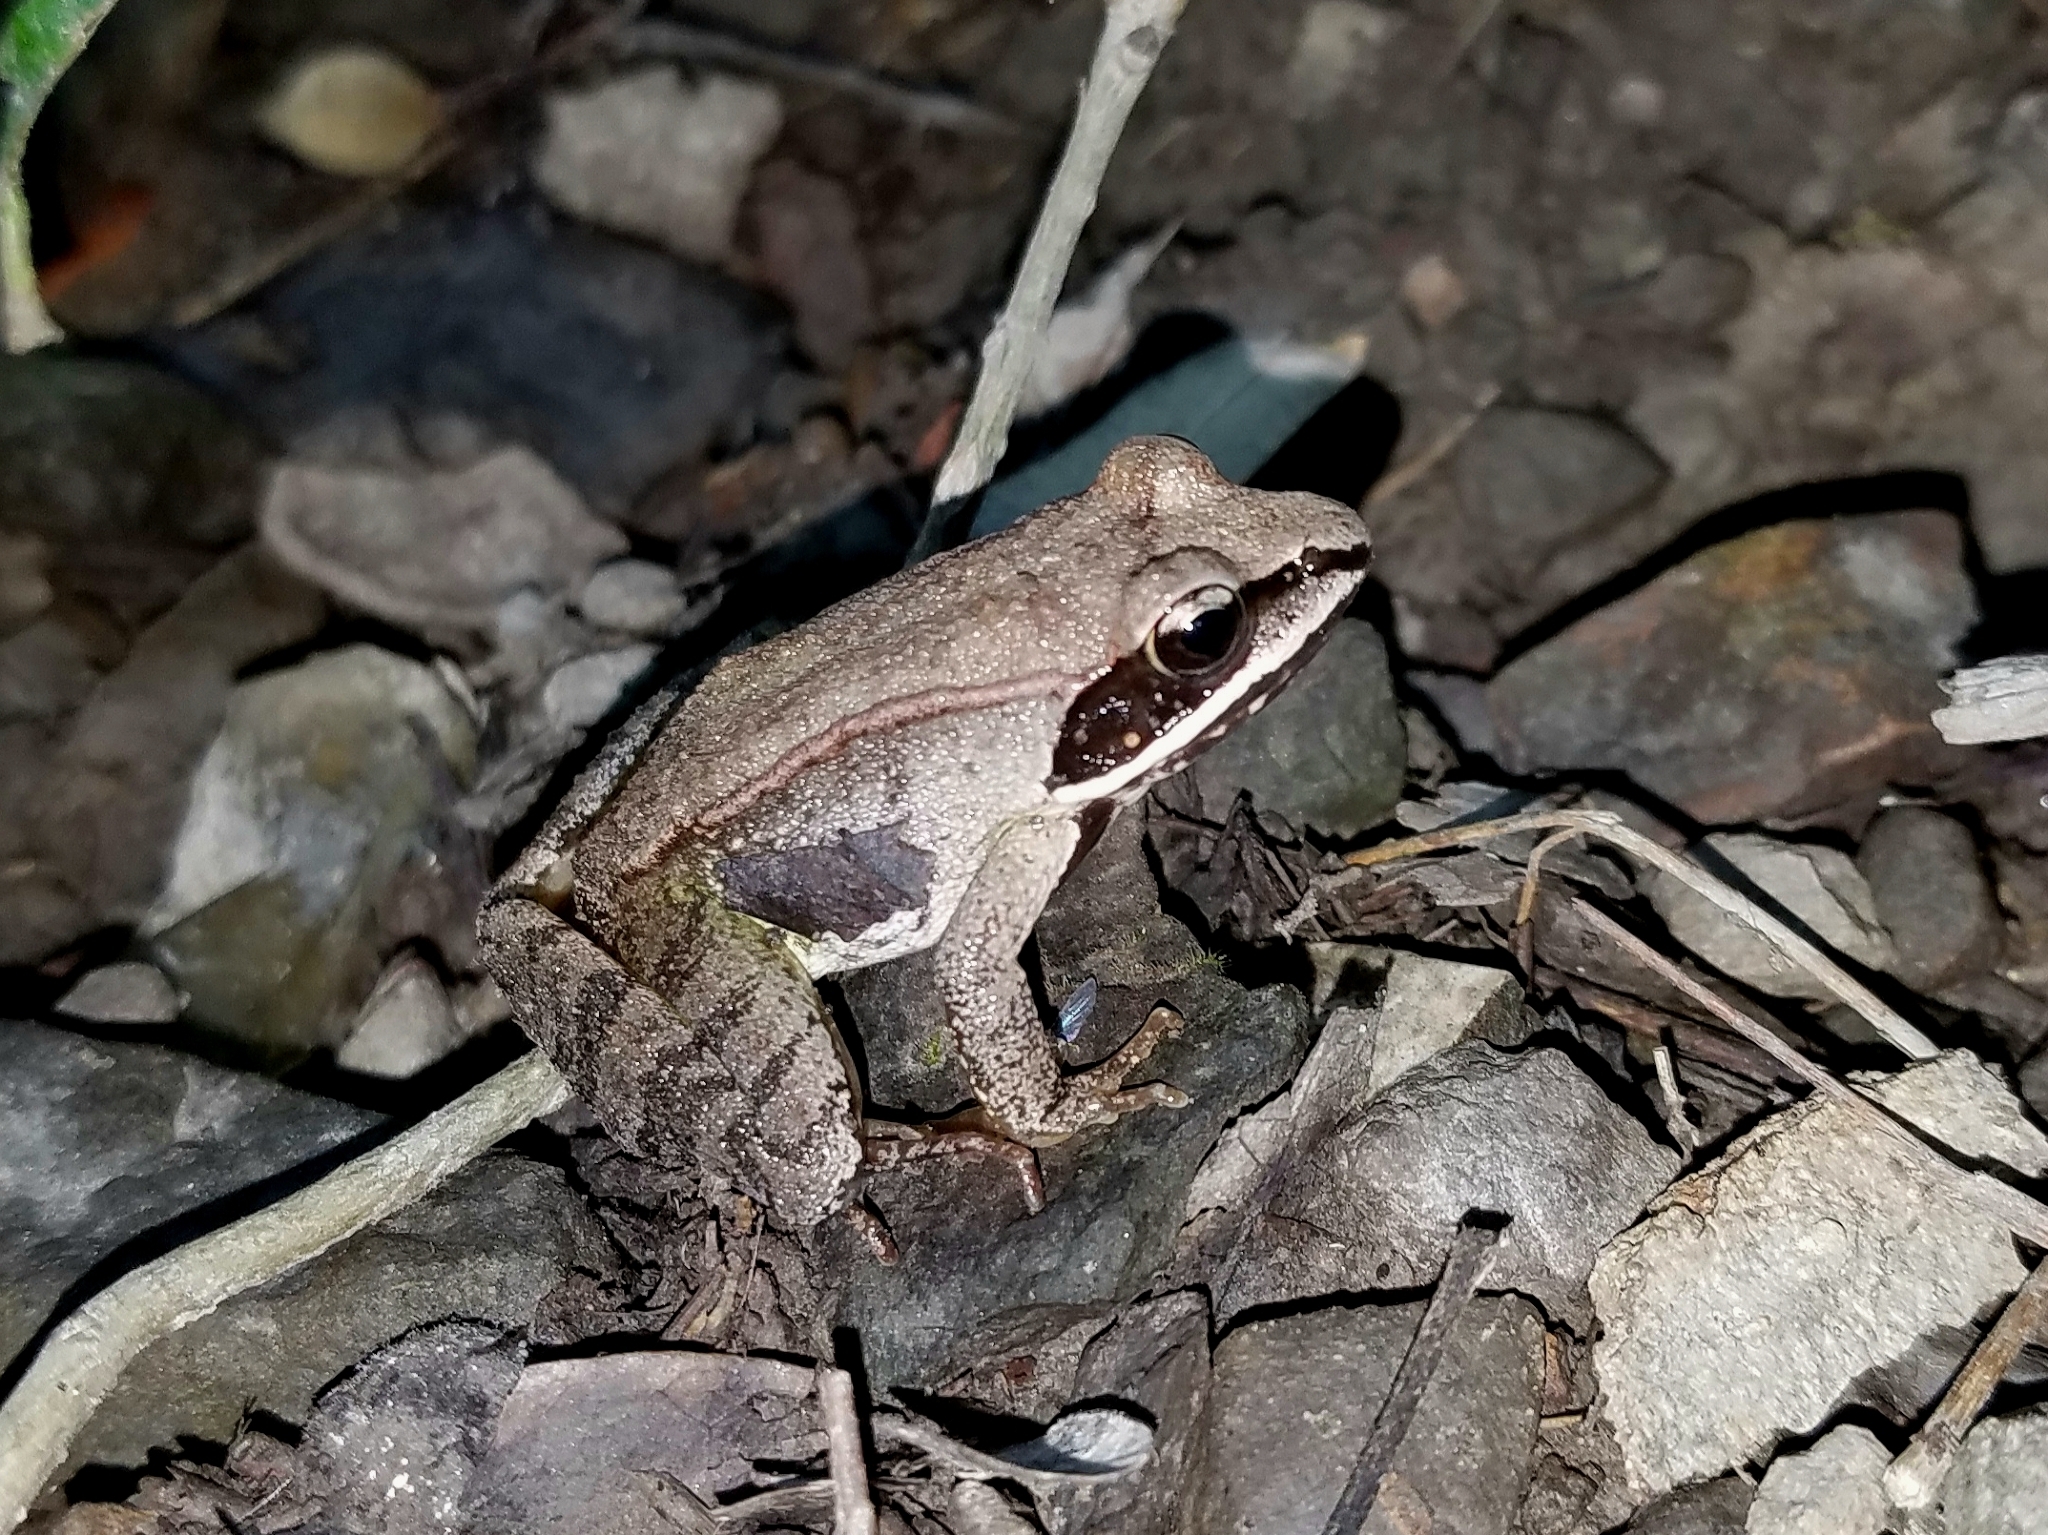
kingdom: Animalia
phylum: Chordata
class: Amphibia
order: Anura
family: Ranidae
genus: Lithobates
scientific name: Lithobates sylvaticus
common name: Wood frog
